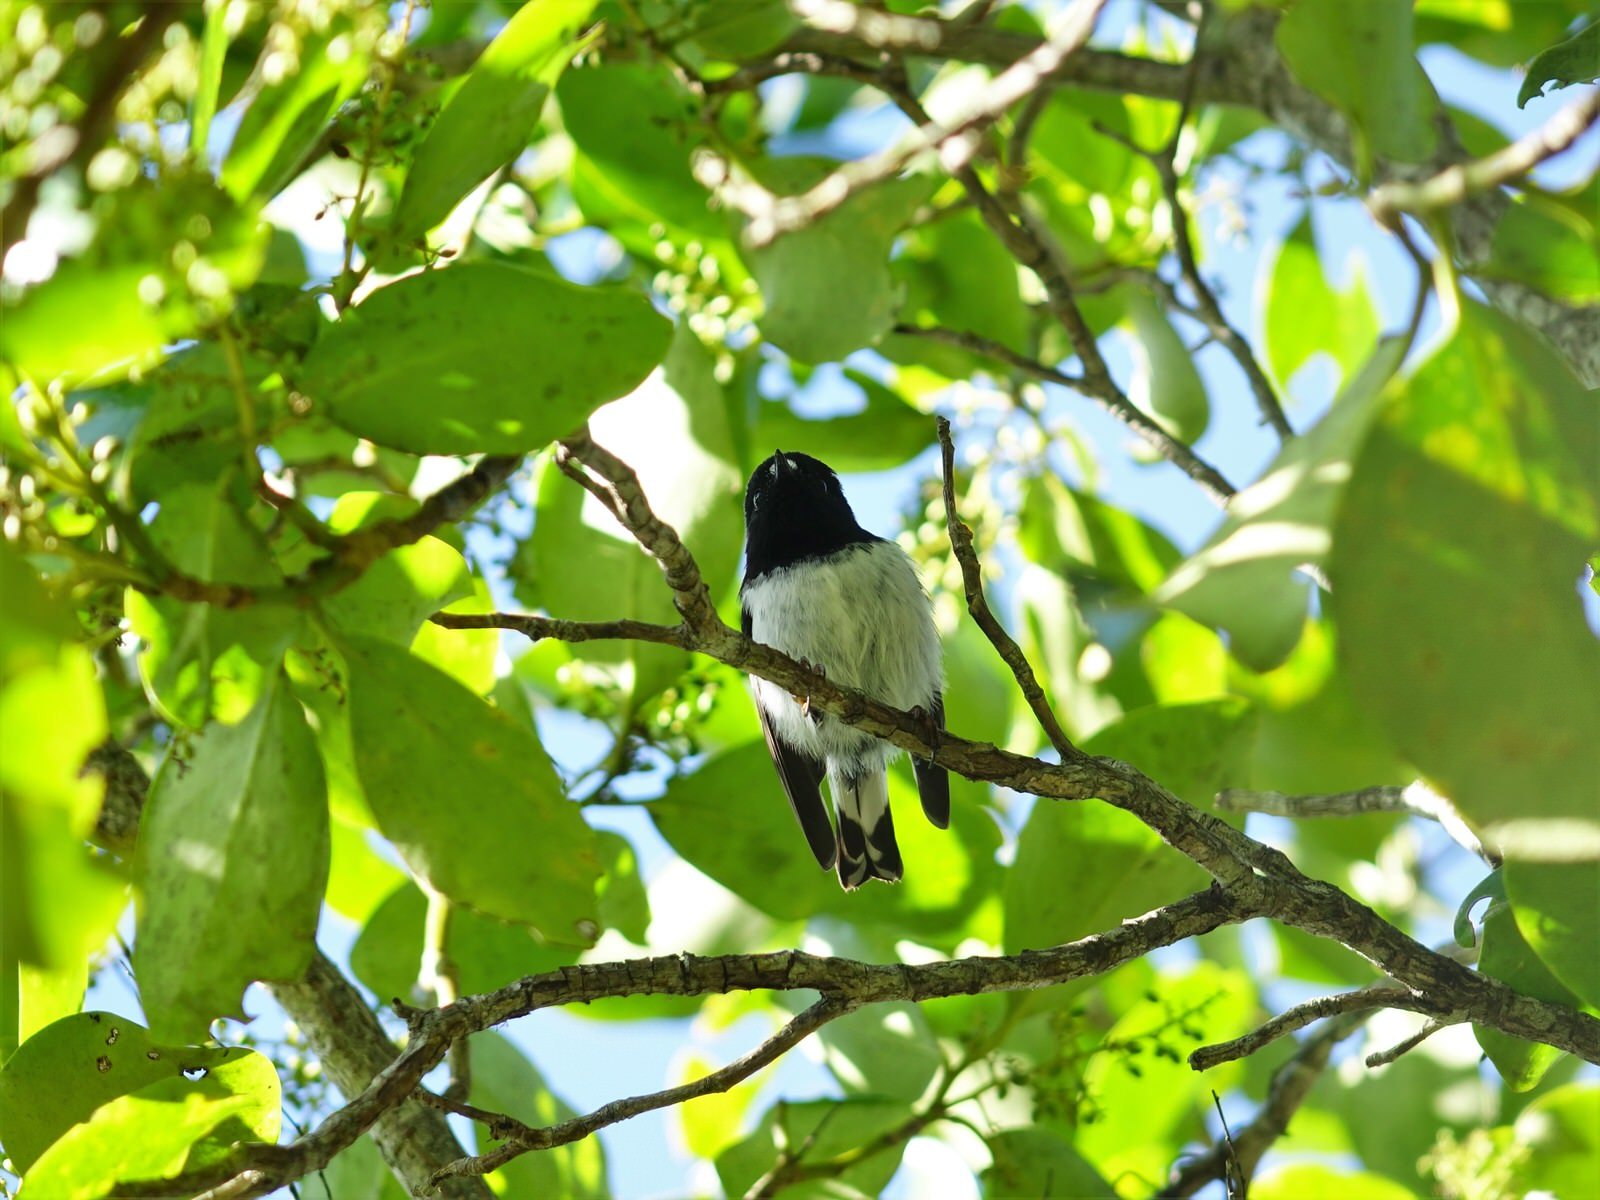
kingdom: Animalia
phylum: Chordata
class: Aves
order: Passeriformes
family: Petroicidae
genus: Petroica
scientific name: Petroica macrocephala
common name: Tomtit
